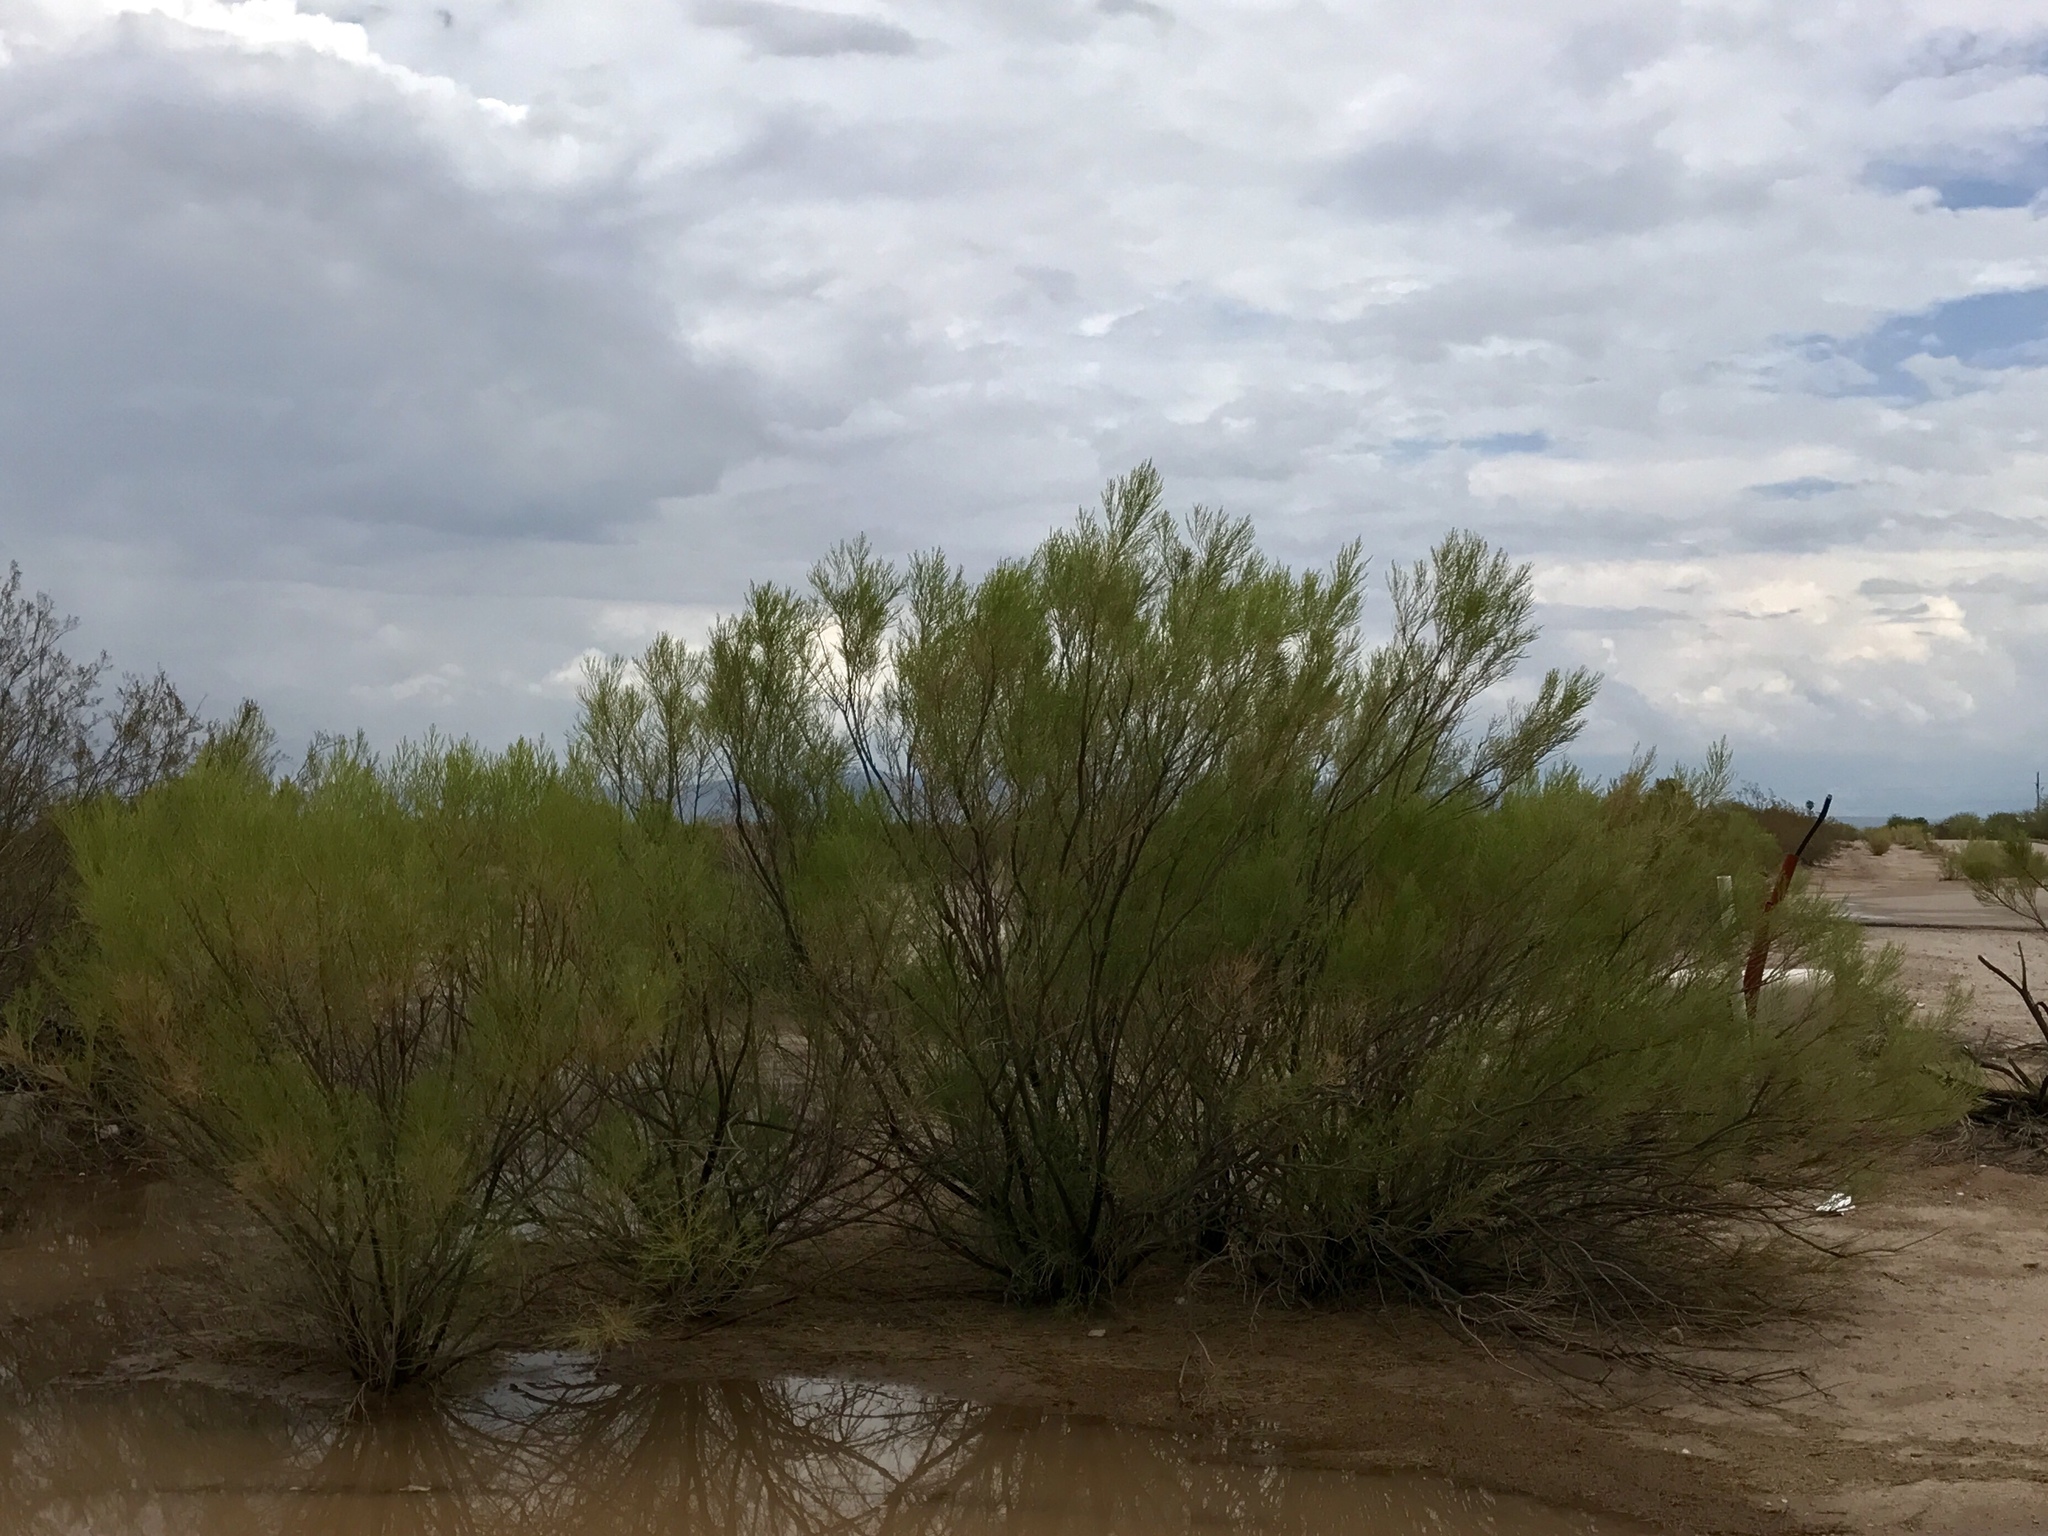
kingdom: Plantae
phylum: Tracheophyta
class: Magnoliopsida
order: Asterales
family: Asteraceae
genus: Baccharis
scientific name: Baccharis sarothroides
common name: Desert-broom
